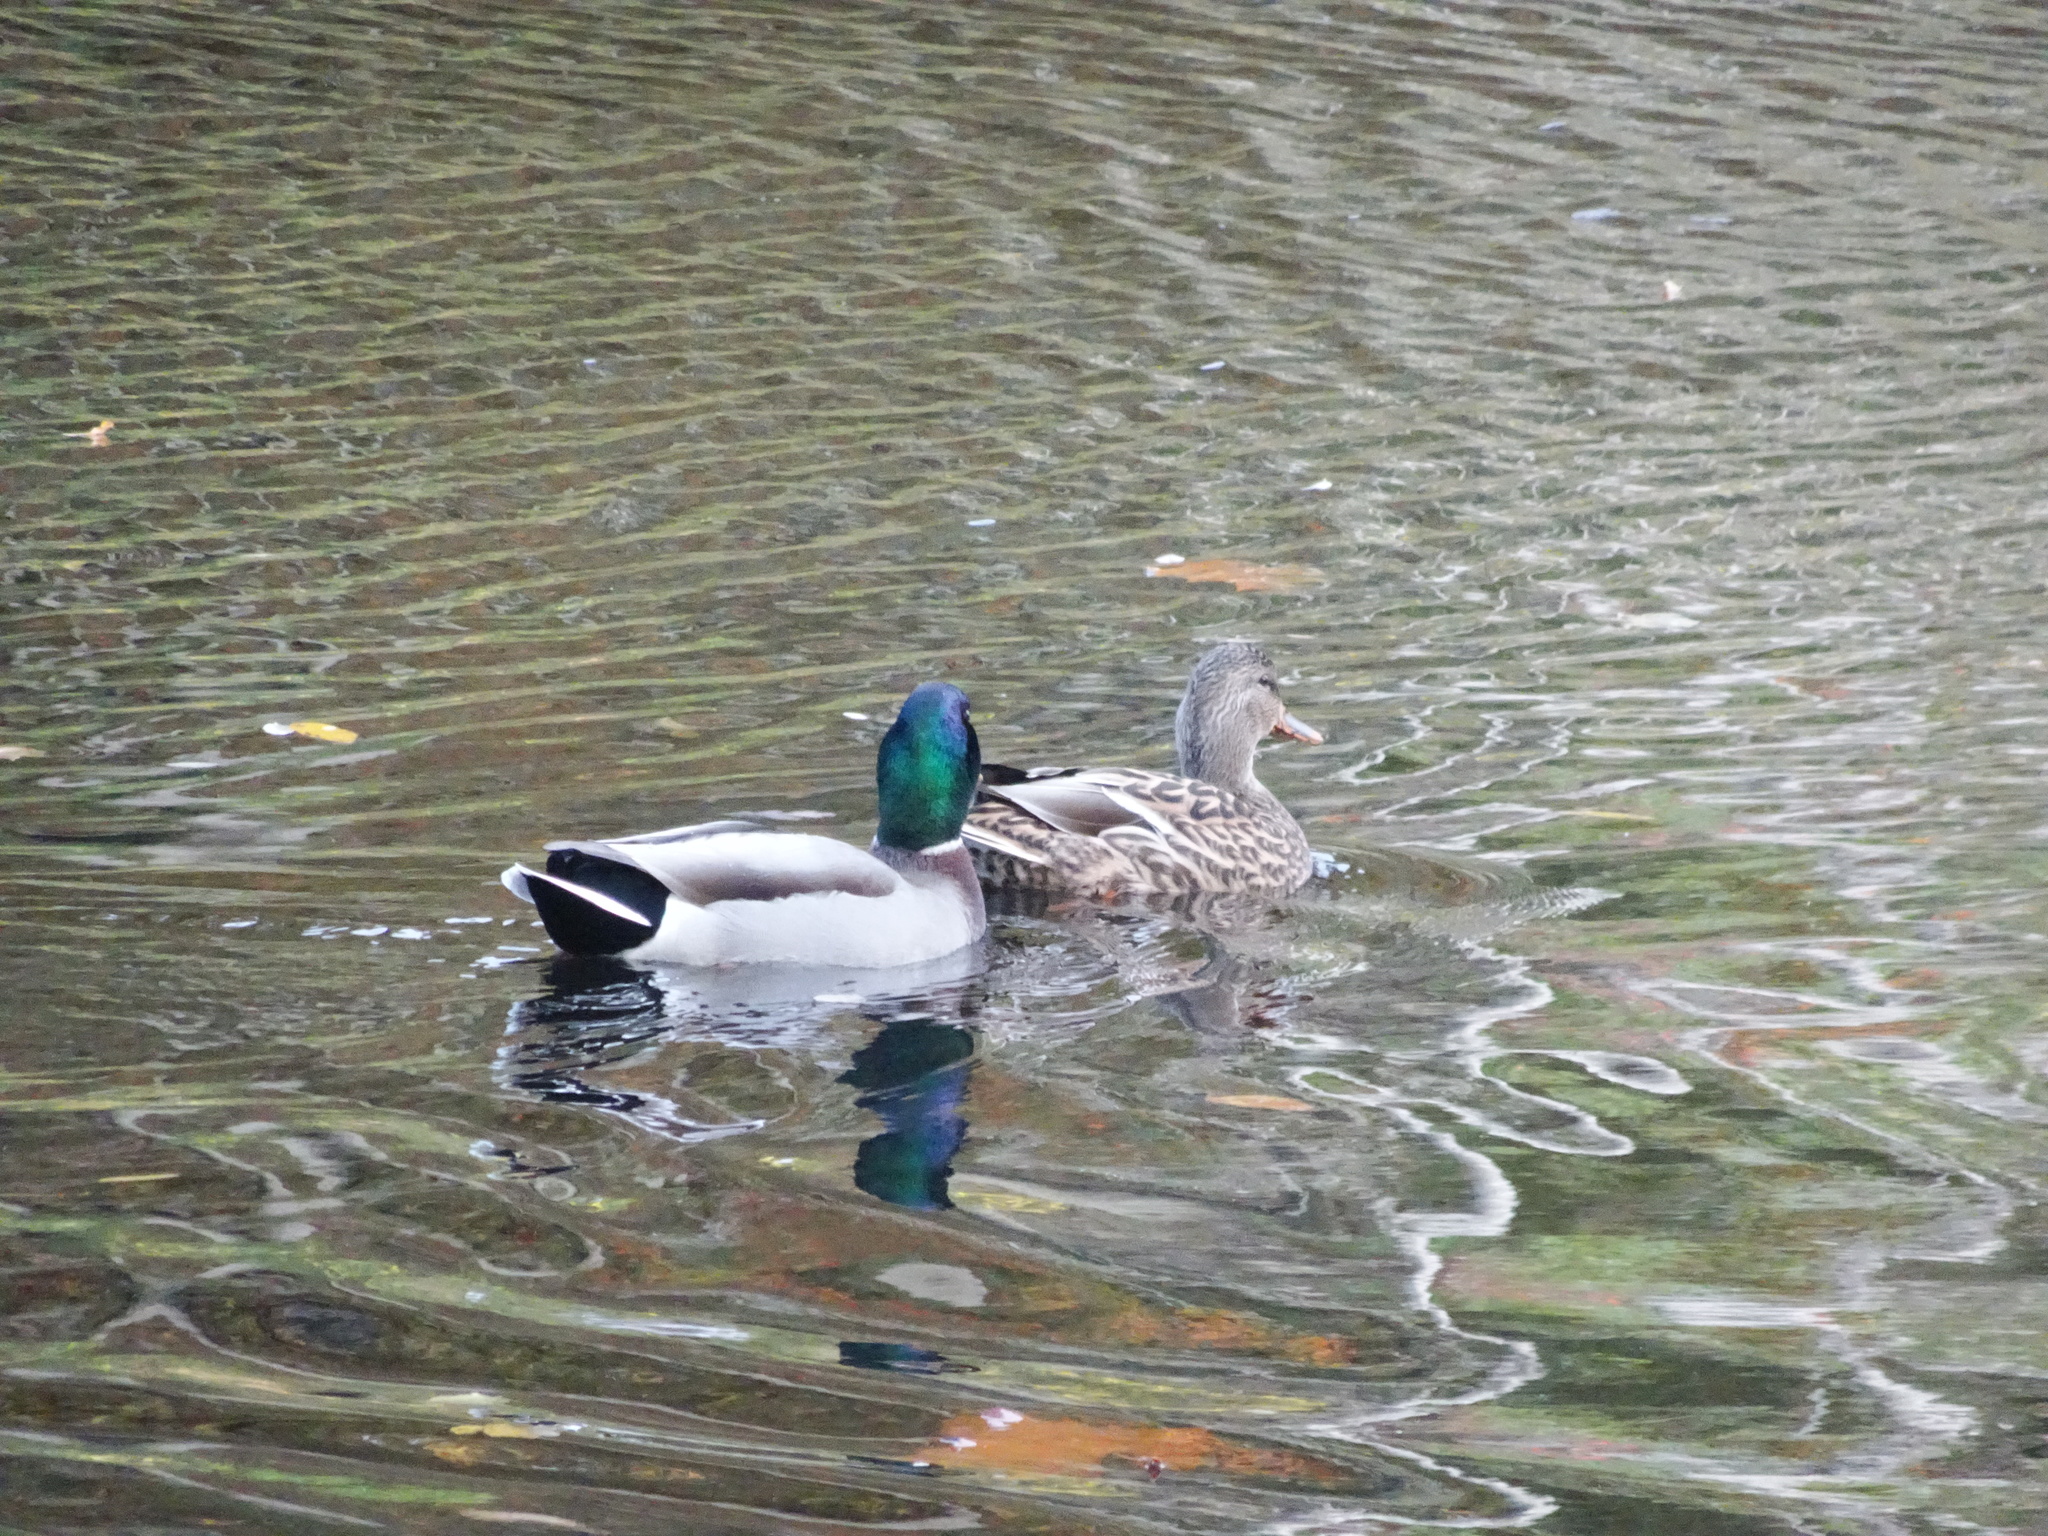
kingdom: Animalia
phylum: Chordata
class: Aves
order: Anseriformes
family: Anatidae
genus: Anas
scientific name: Anas platyrhynchos
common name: Mallard
